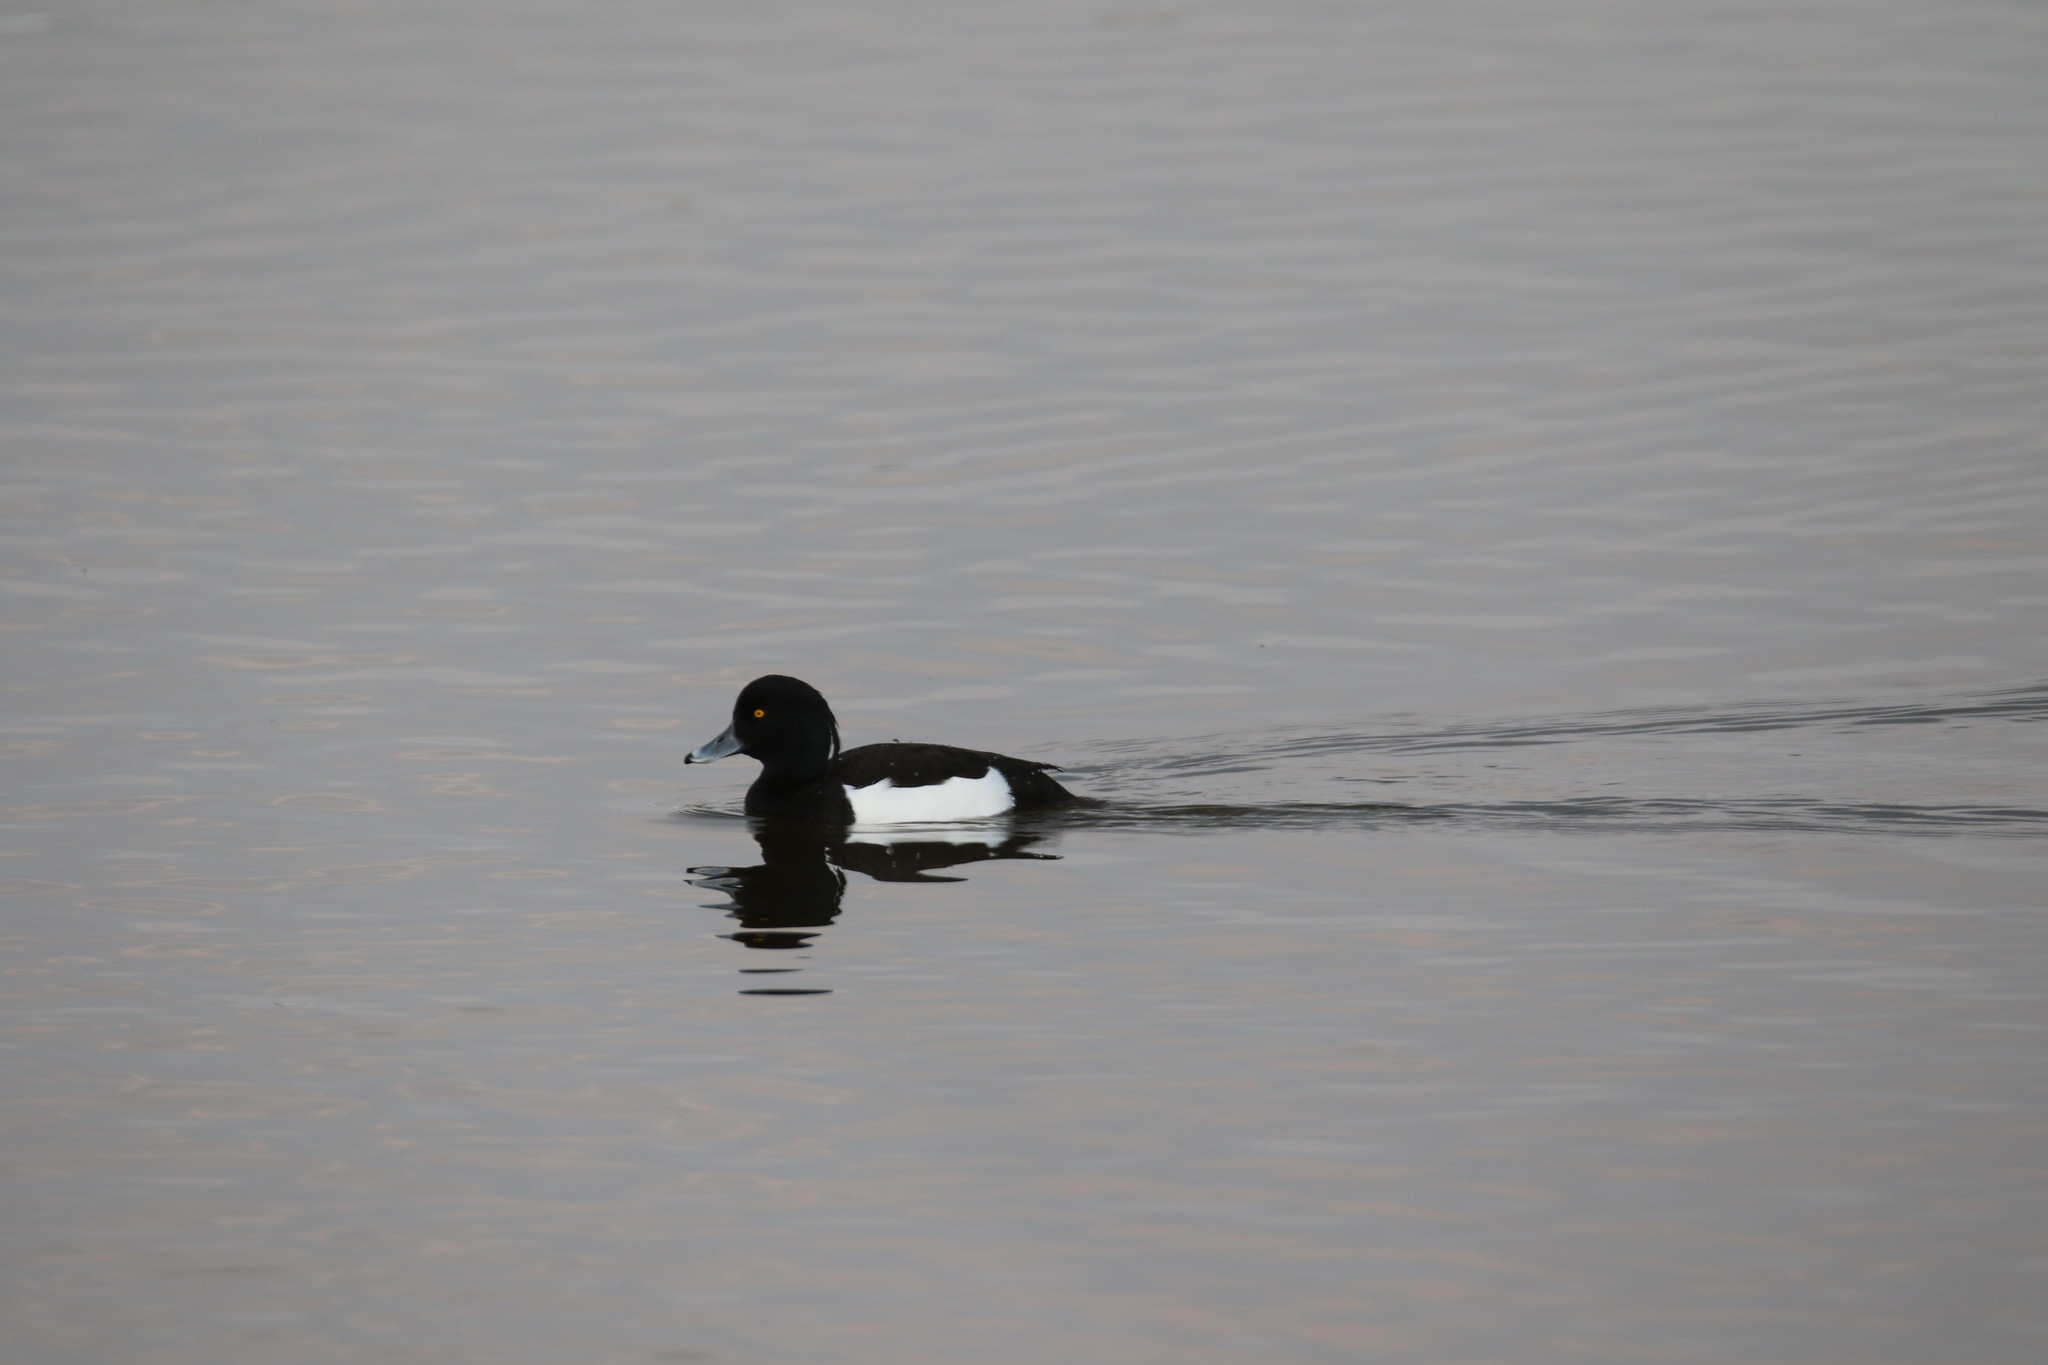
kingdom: Animalia
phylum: Chordata
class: Aves
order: Anseriformes
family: Anatidae
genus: Aythya
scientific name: Aythya fuligula
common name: Tufted duck
